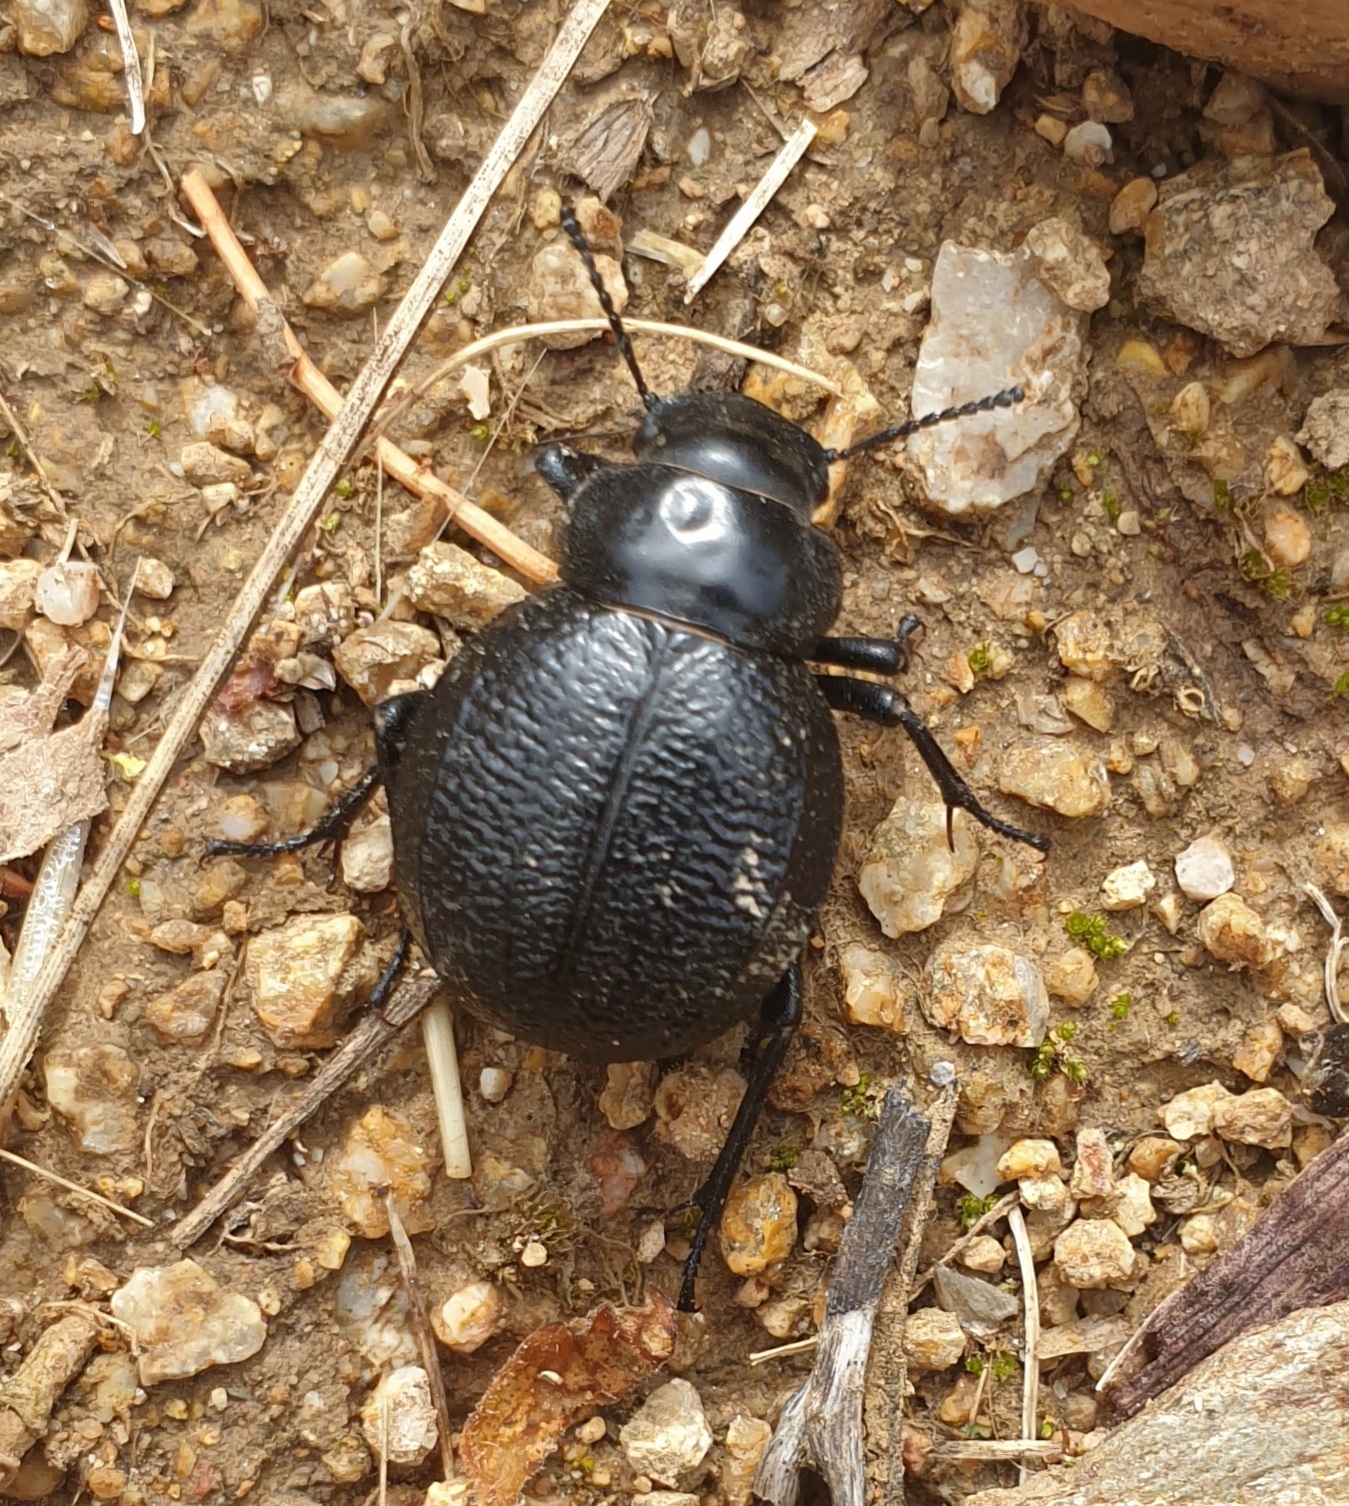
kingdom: Animalia
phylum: Arthropoda
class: Insecta
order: Coleoptera
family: Tenebrionidae
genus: Pimelia
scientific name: Pimelia payraudi
